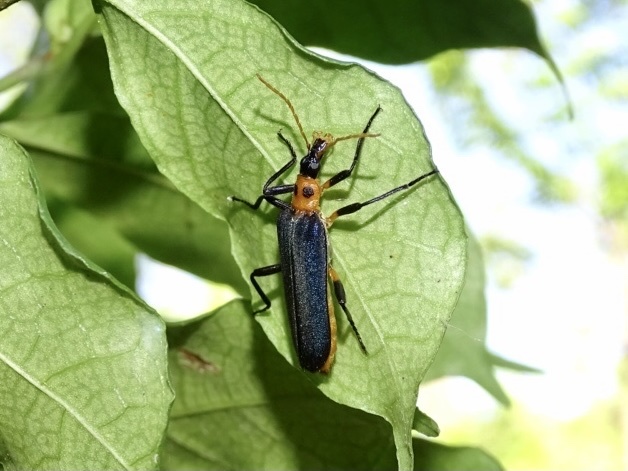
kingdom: Animalia
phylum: Arthropoda
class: Insecta
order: Coleoptera
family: Prionoceridae
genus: Idgia
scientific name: Idgia
